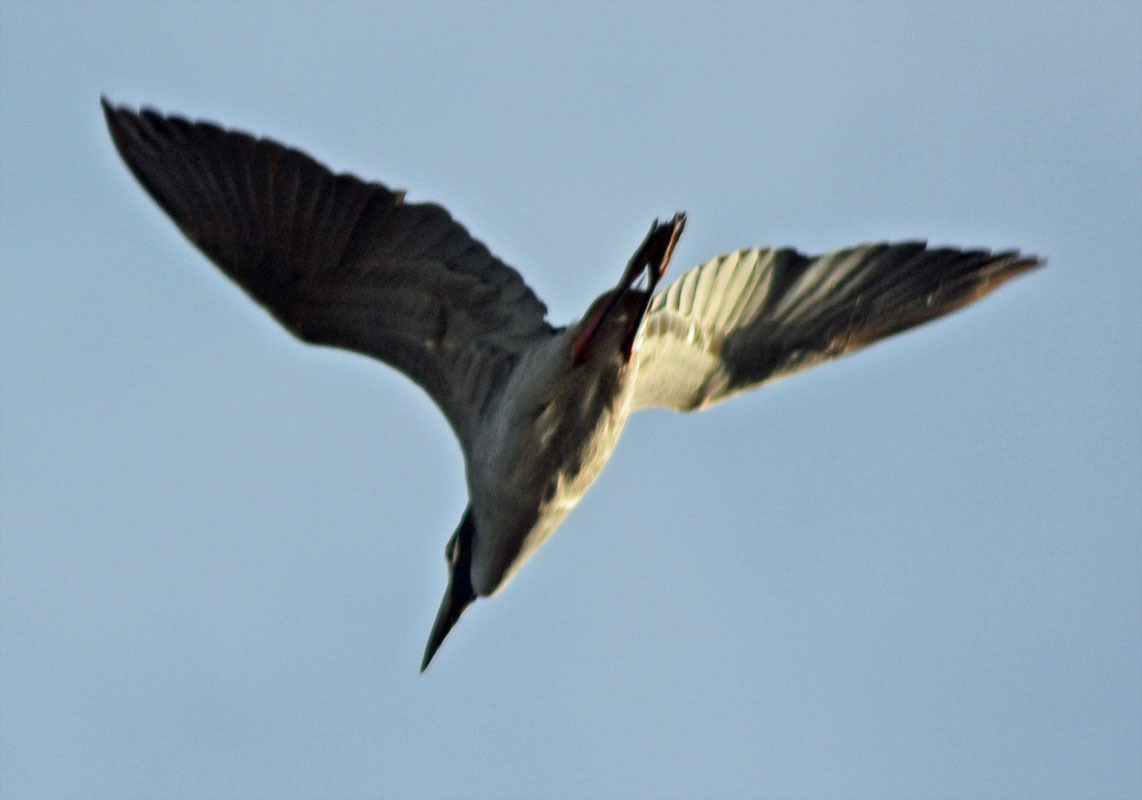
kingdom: Animalia
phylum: Chordata
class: Aves
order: Pelecaniformes
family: Ardeidae
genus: Nyctanassa
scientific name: Nyctanassa violacea
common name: Yellow-crowned night heron
